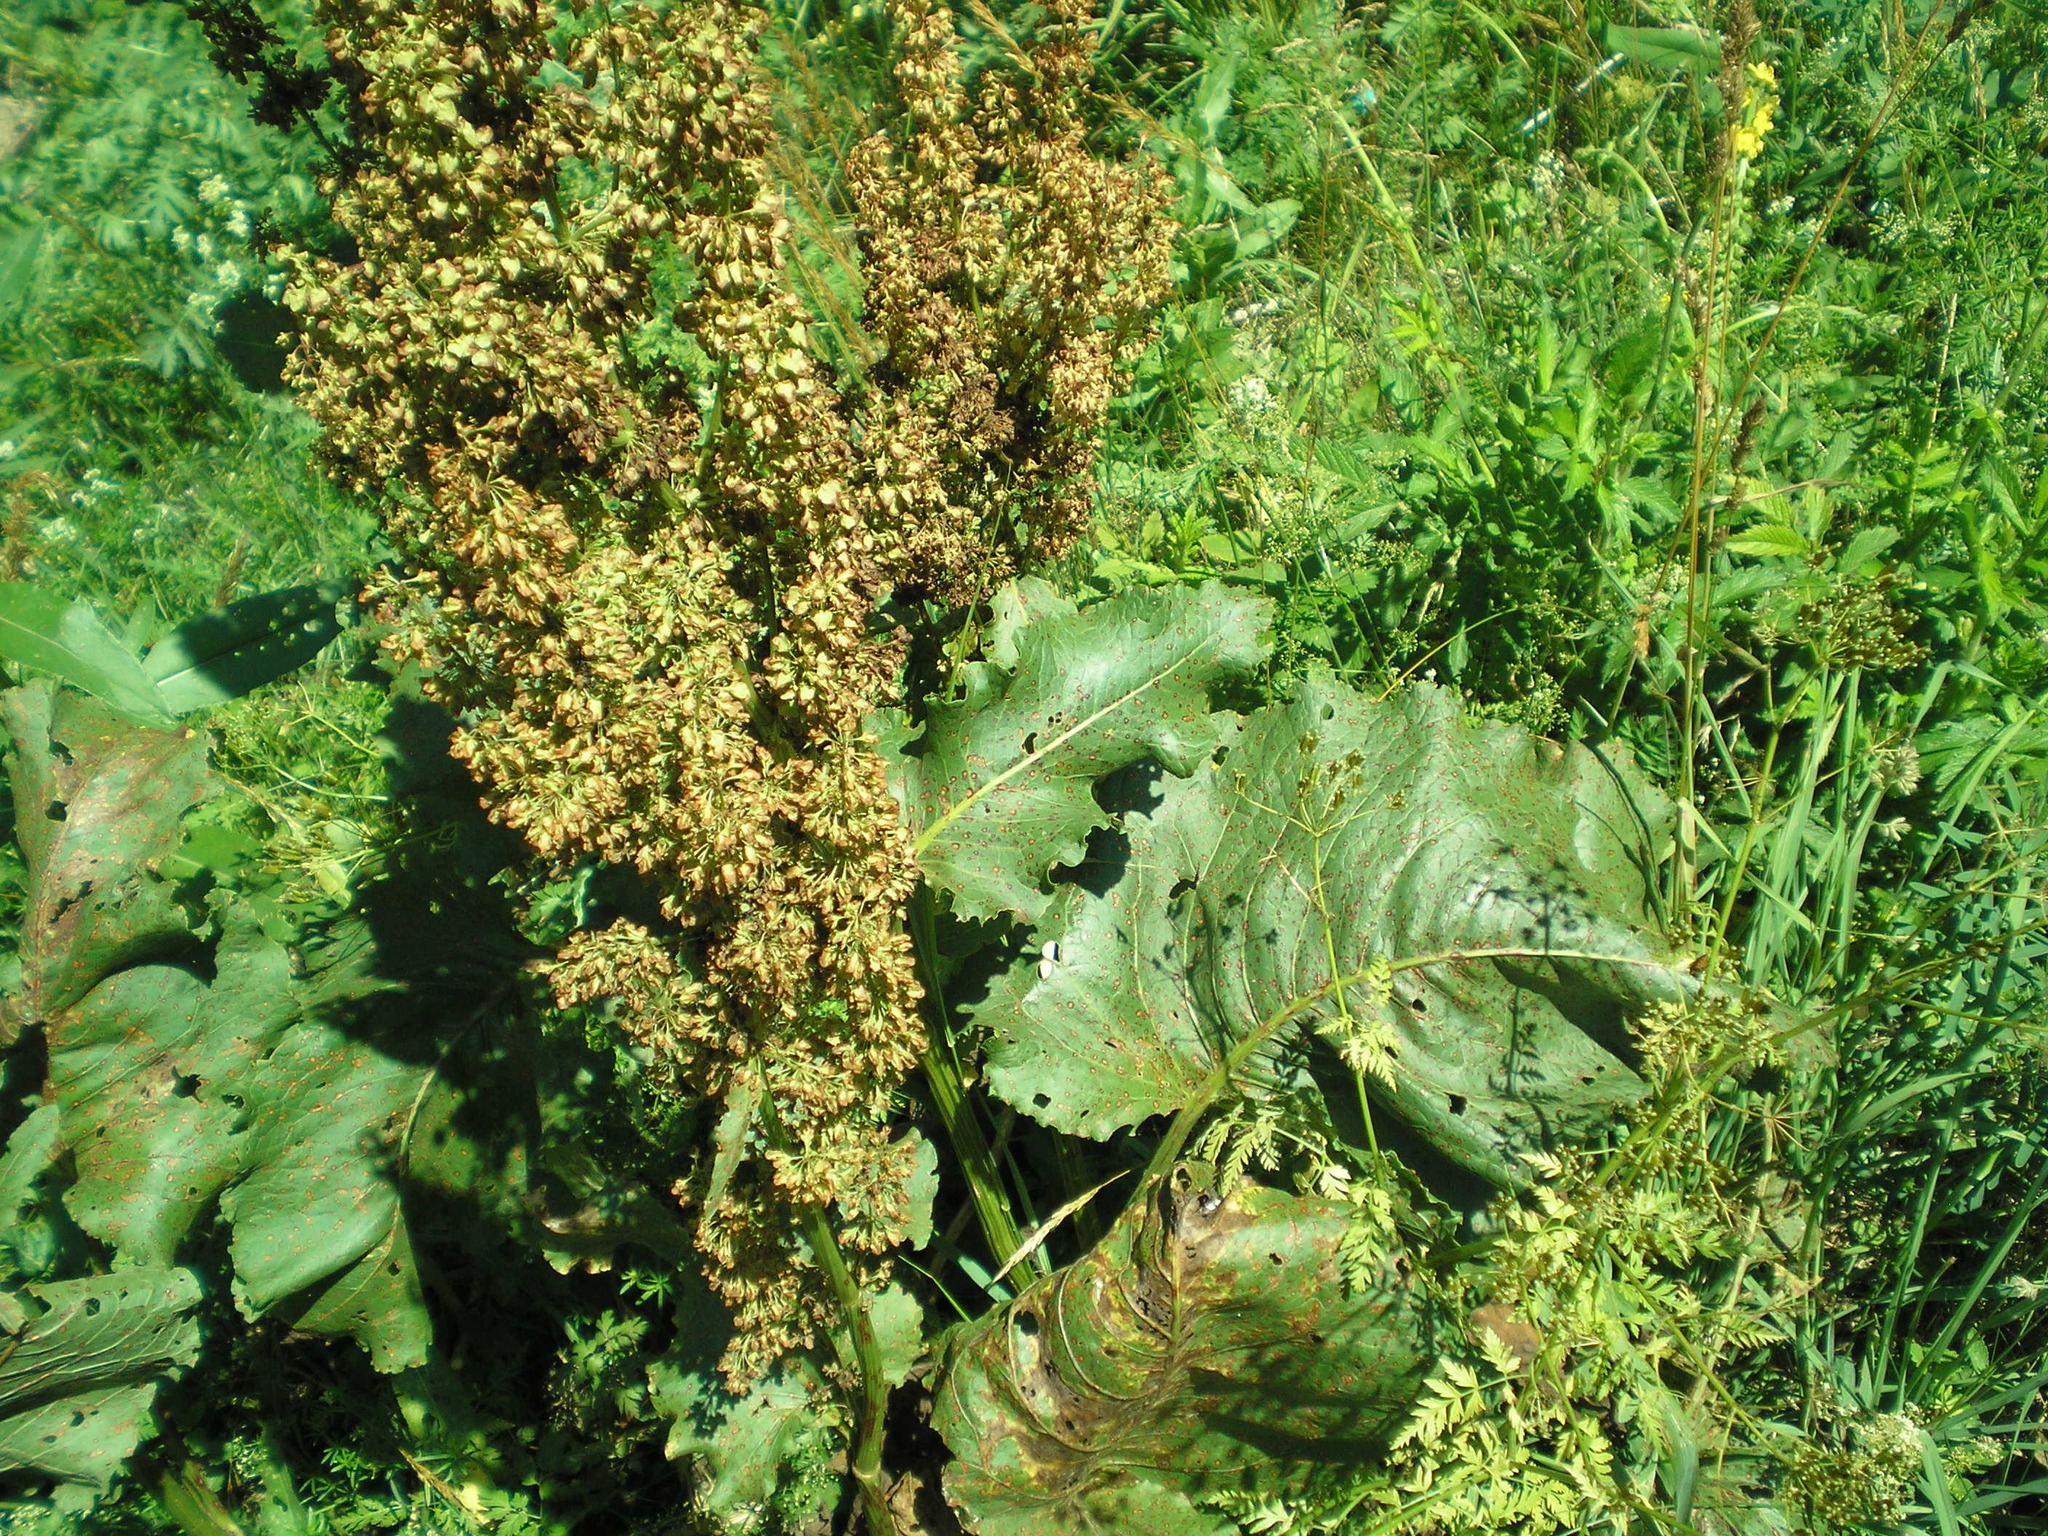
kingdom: Plantae
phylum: Tracheophyta
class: Magnoliopsida
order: Caryophyllales
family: Polygonaceae
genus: Rumex
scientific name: Rumex confertus
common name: Russian dock
